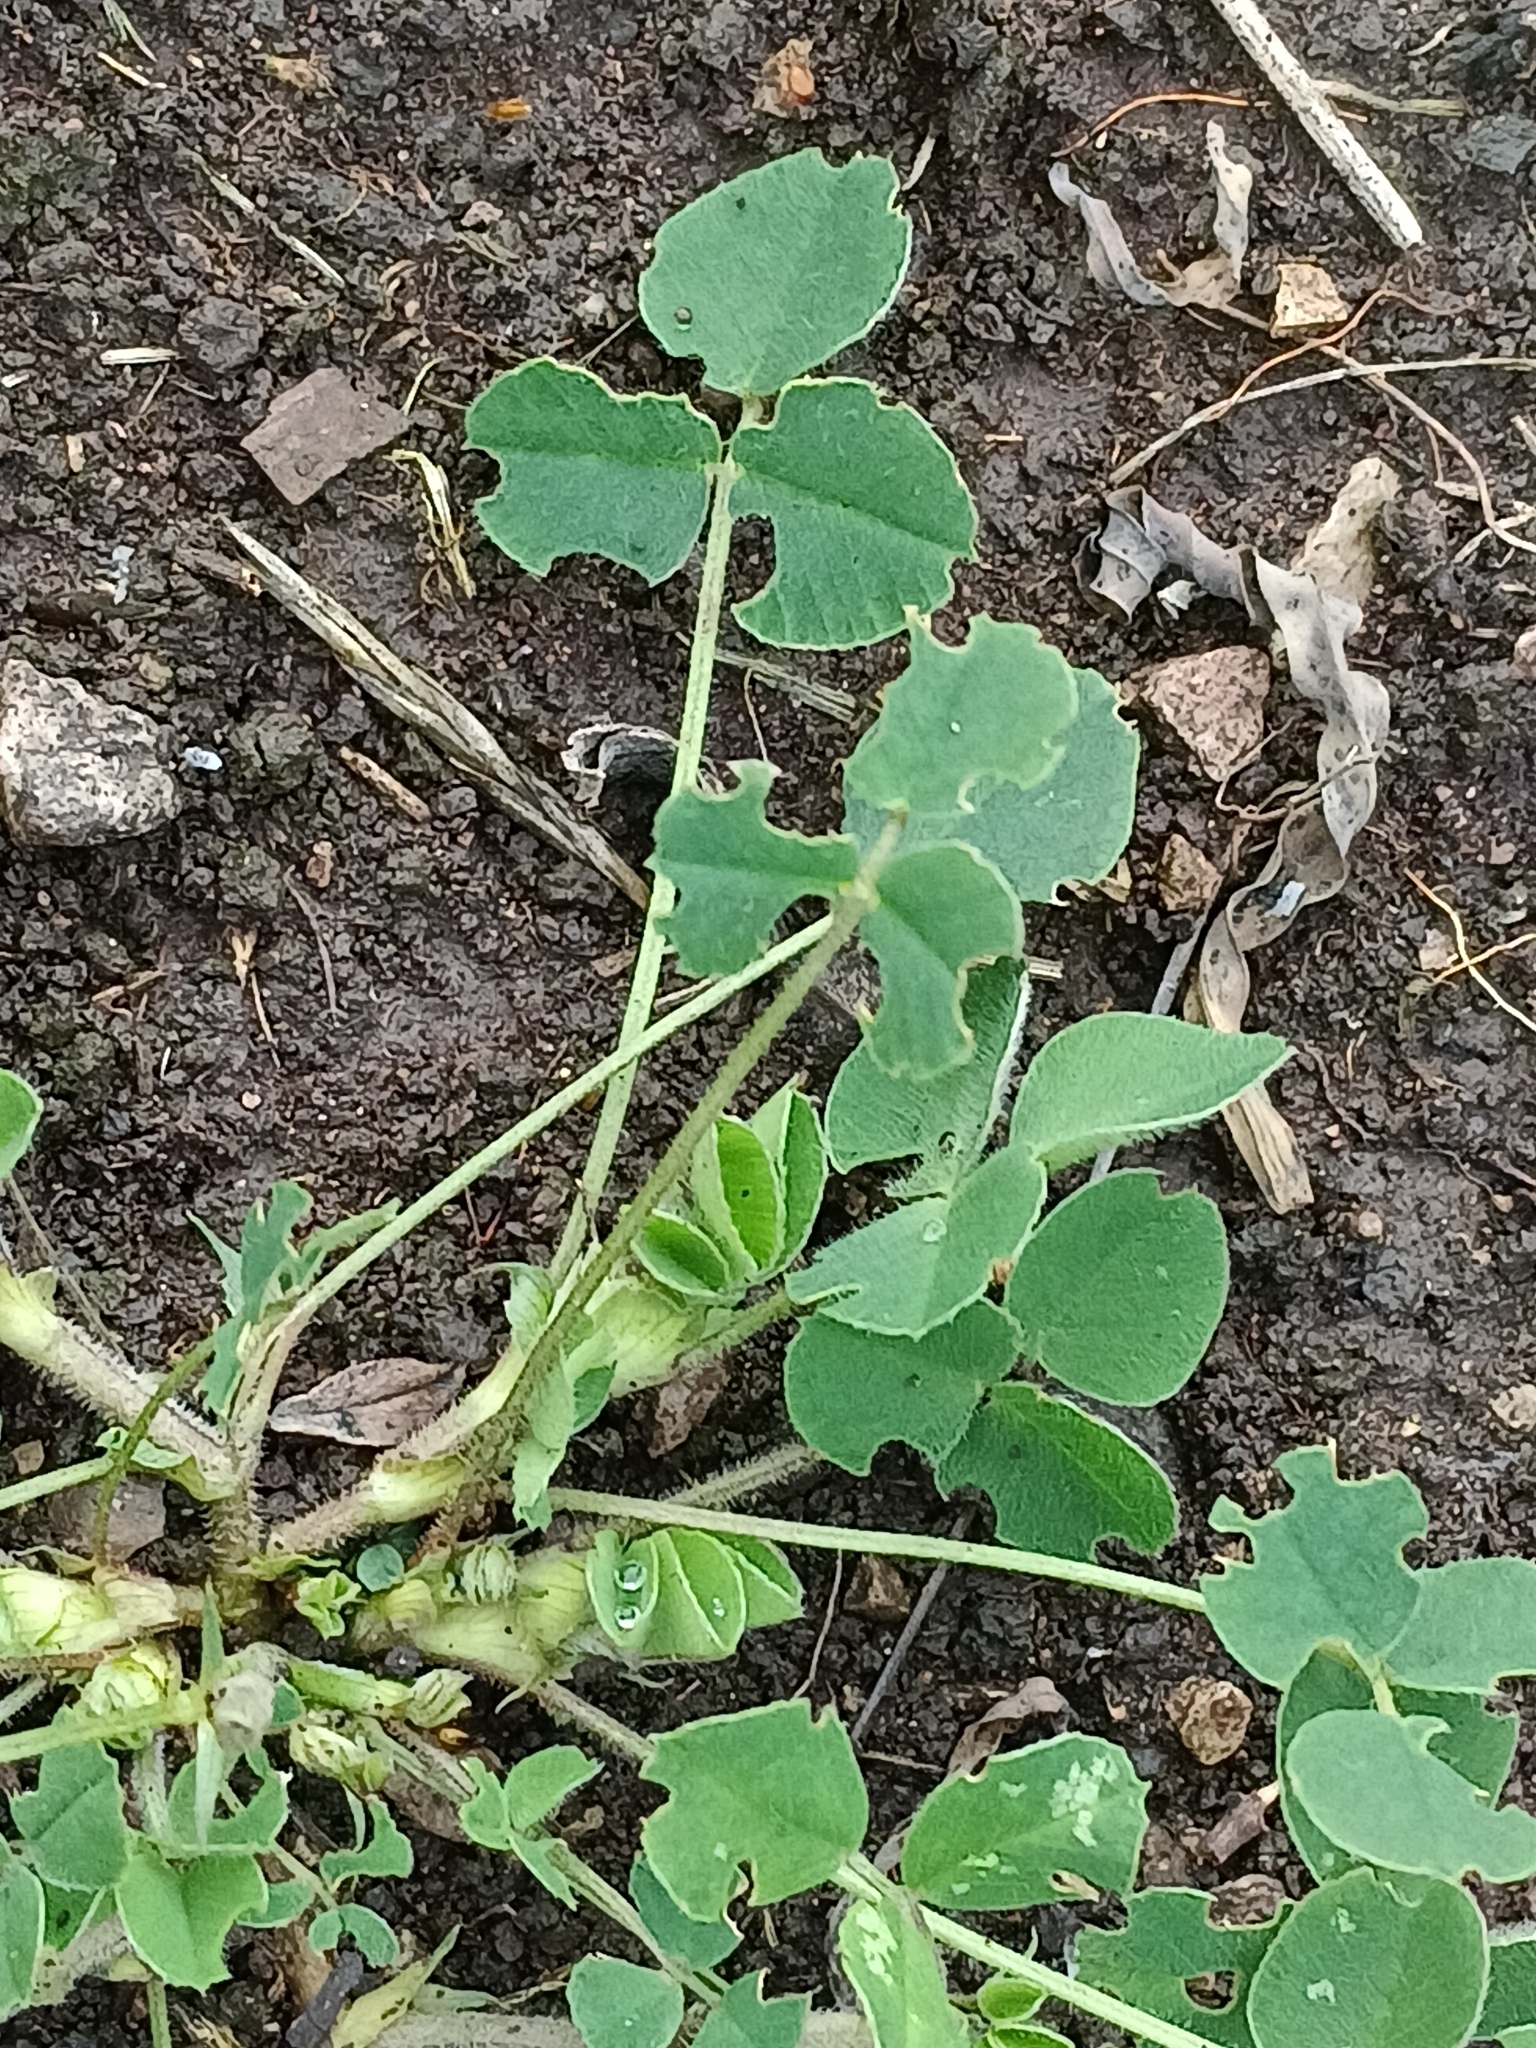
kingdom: Plantae
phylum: Tracheophyta
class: Magnoliopsida
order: Fabales
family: Fabaceae
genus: Medicago
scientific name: Medicago lupulina
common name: Black medick
